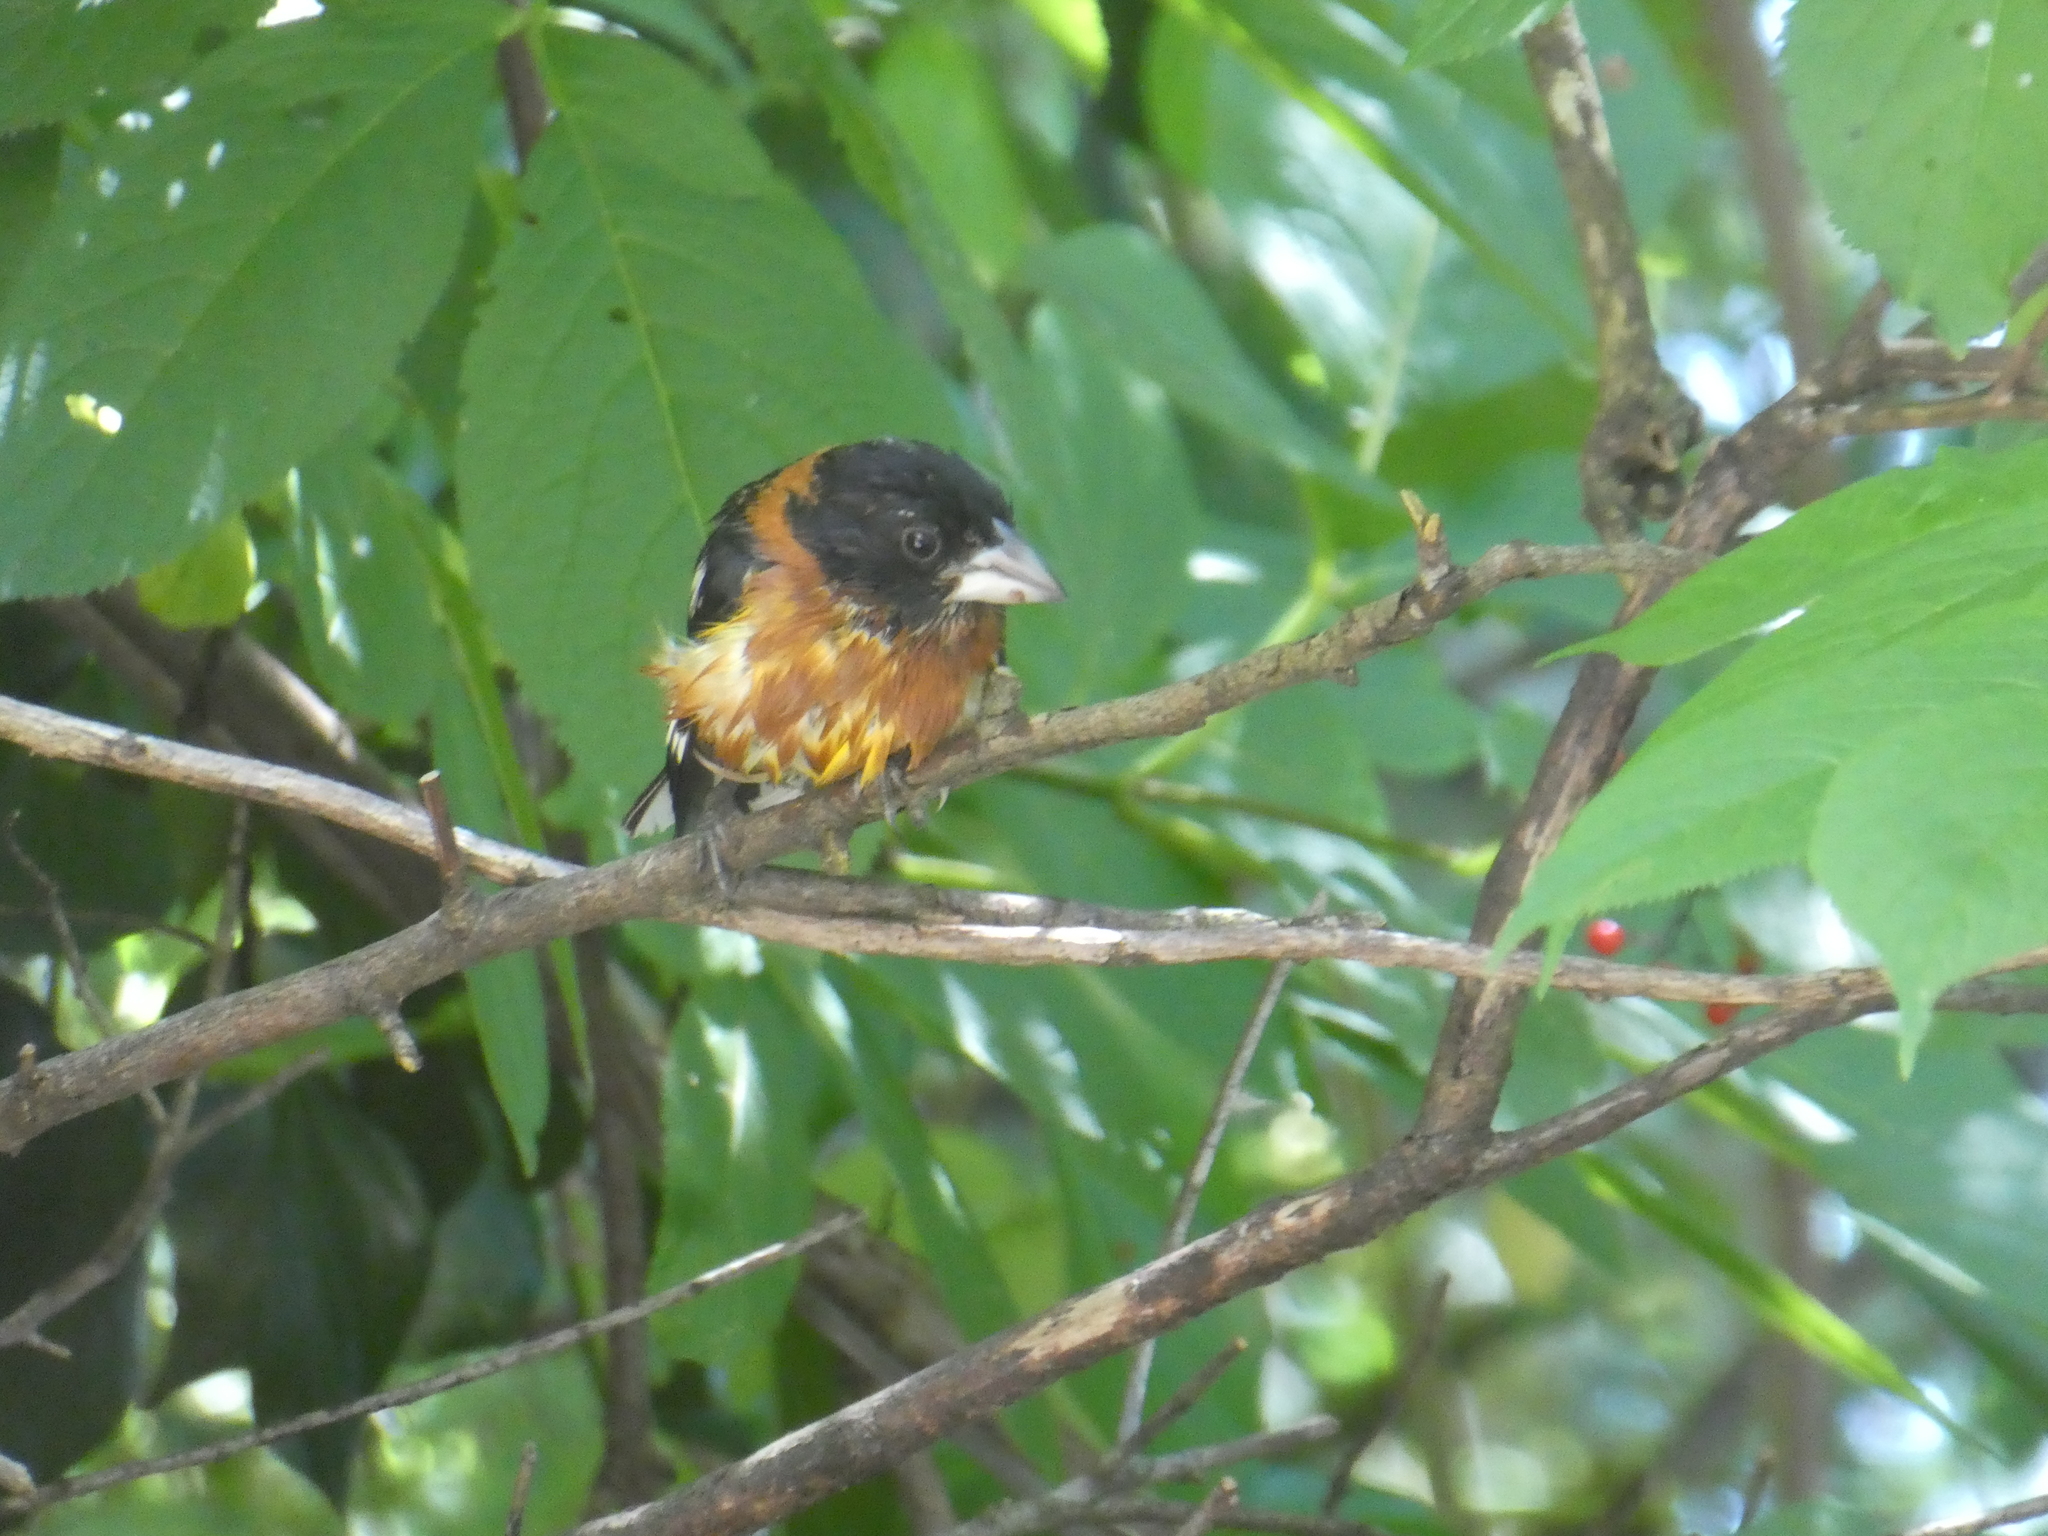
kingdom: Animalia
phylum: Chordata
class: Aves
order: Passeriformes
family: Cardinalidae
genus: Pheucticus
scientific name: Pheucticus melanocephalus
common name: Black-headed grosbeak
